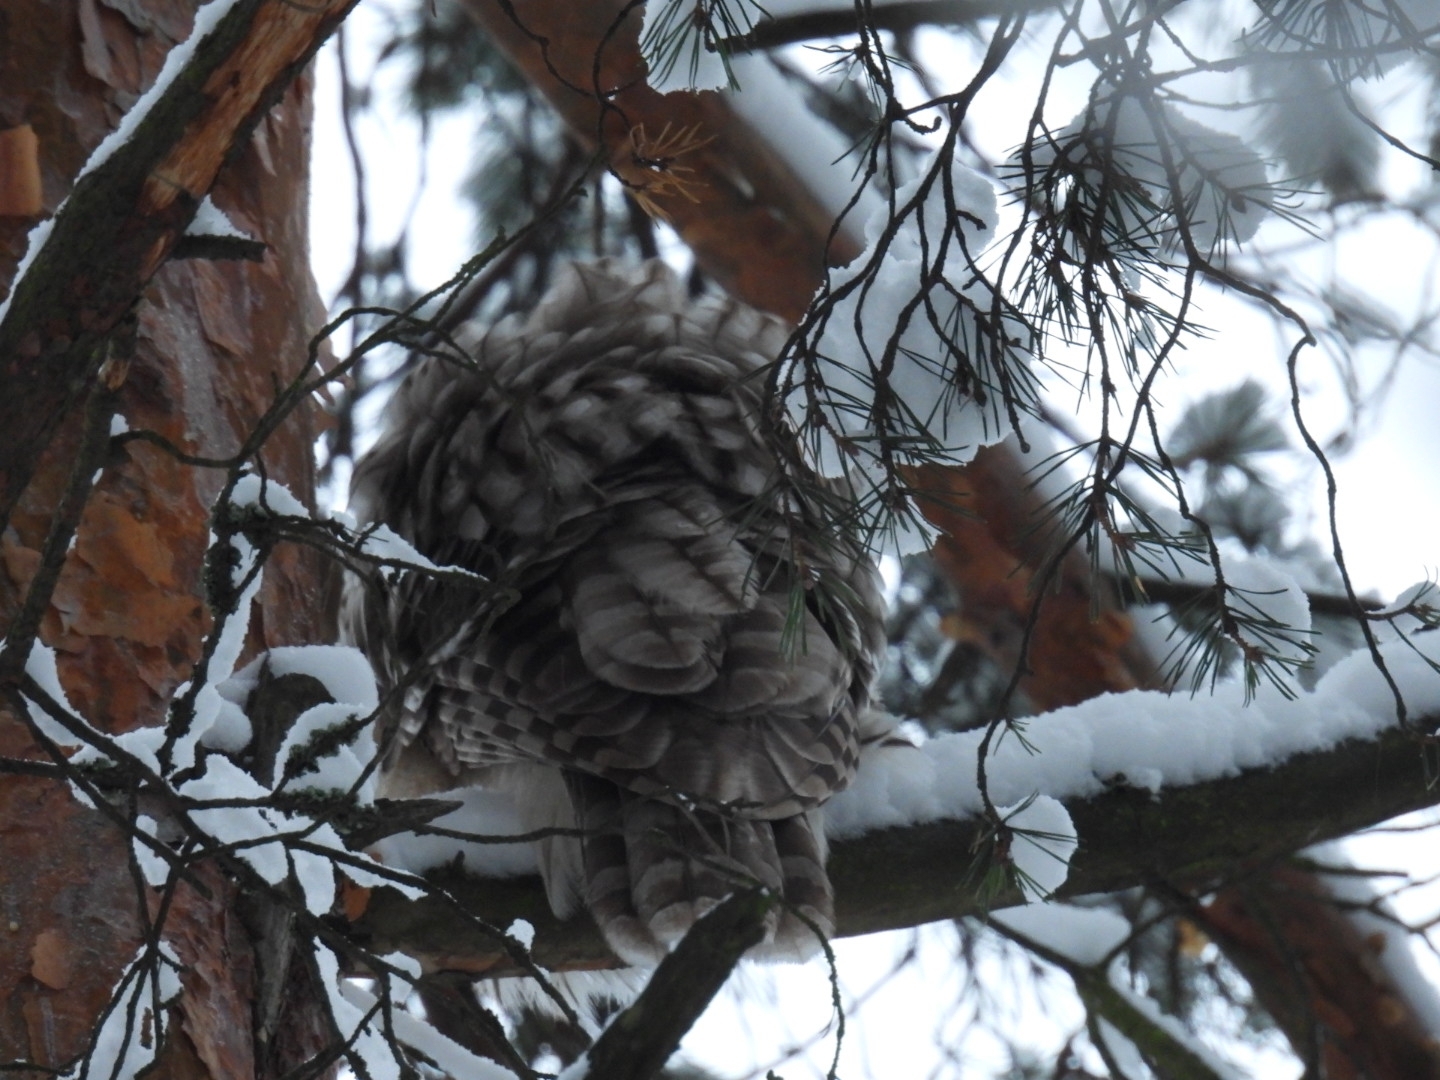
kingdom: Animalia
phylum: Chordata
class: Aves
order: Strigiformes
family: Strigidae
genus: Strix
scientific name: Strix uralensis
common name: Ural owl
